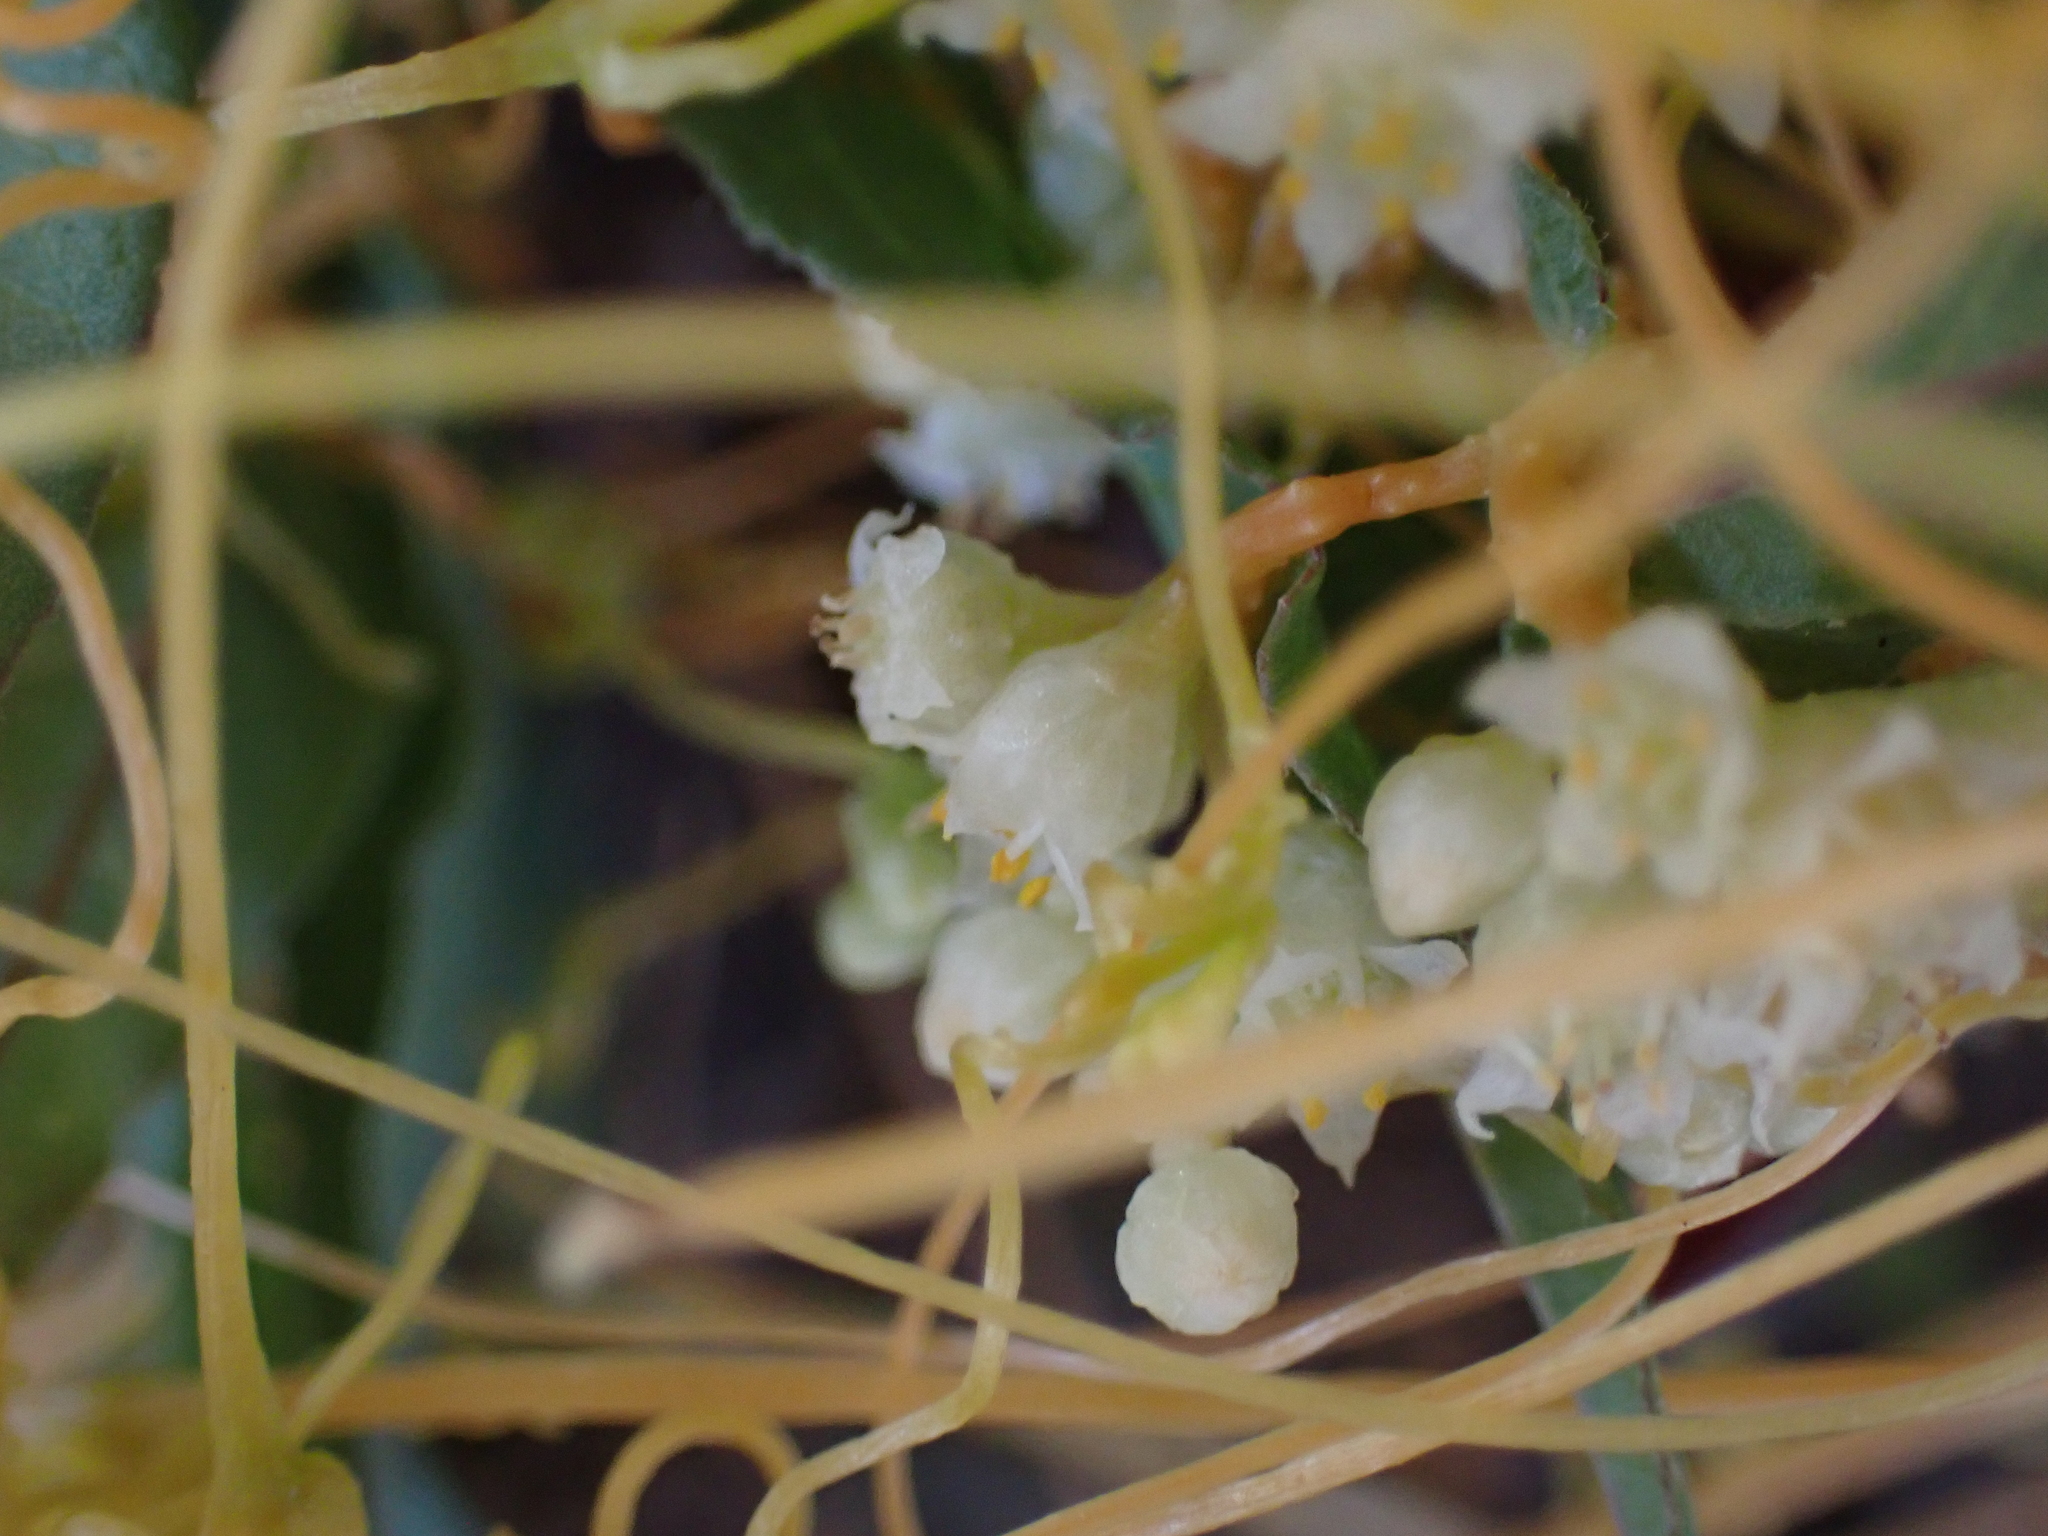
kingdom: Plantae
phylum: Tracheophyta
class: Magnoliopsida
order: Solanales
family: Convolvulaceae
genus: Cuscuta
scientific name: Cuscuta campestris
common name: Yellow dodder
